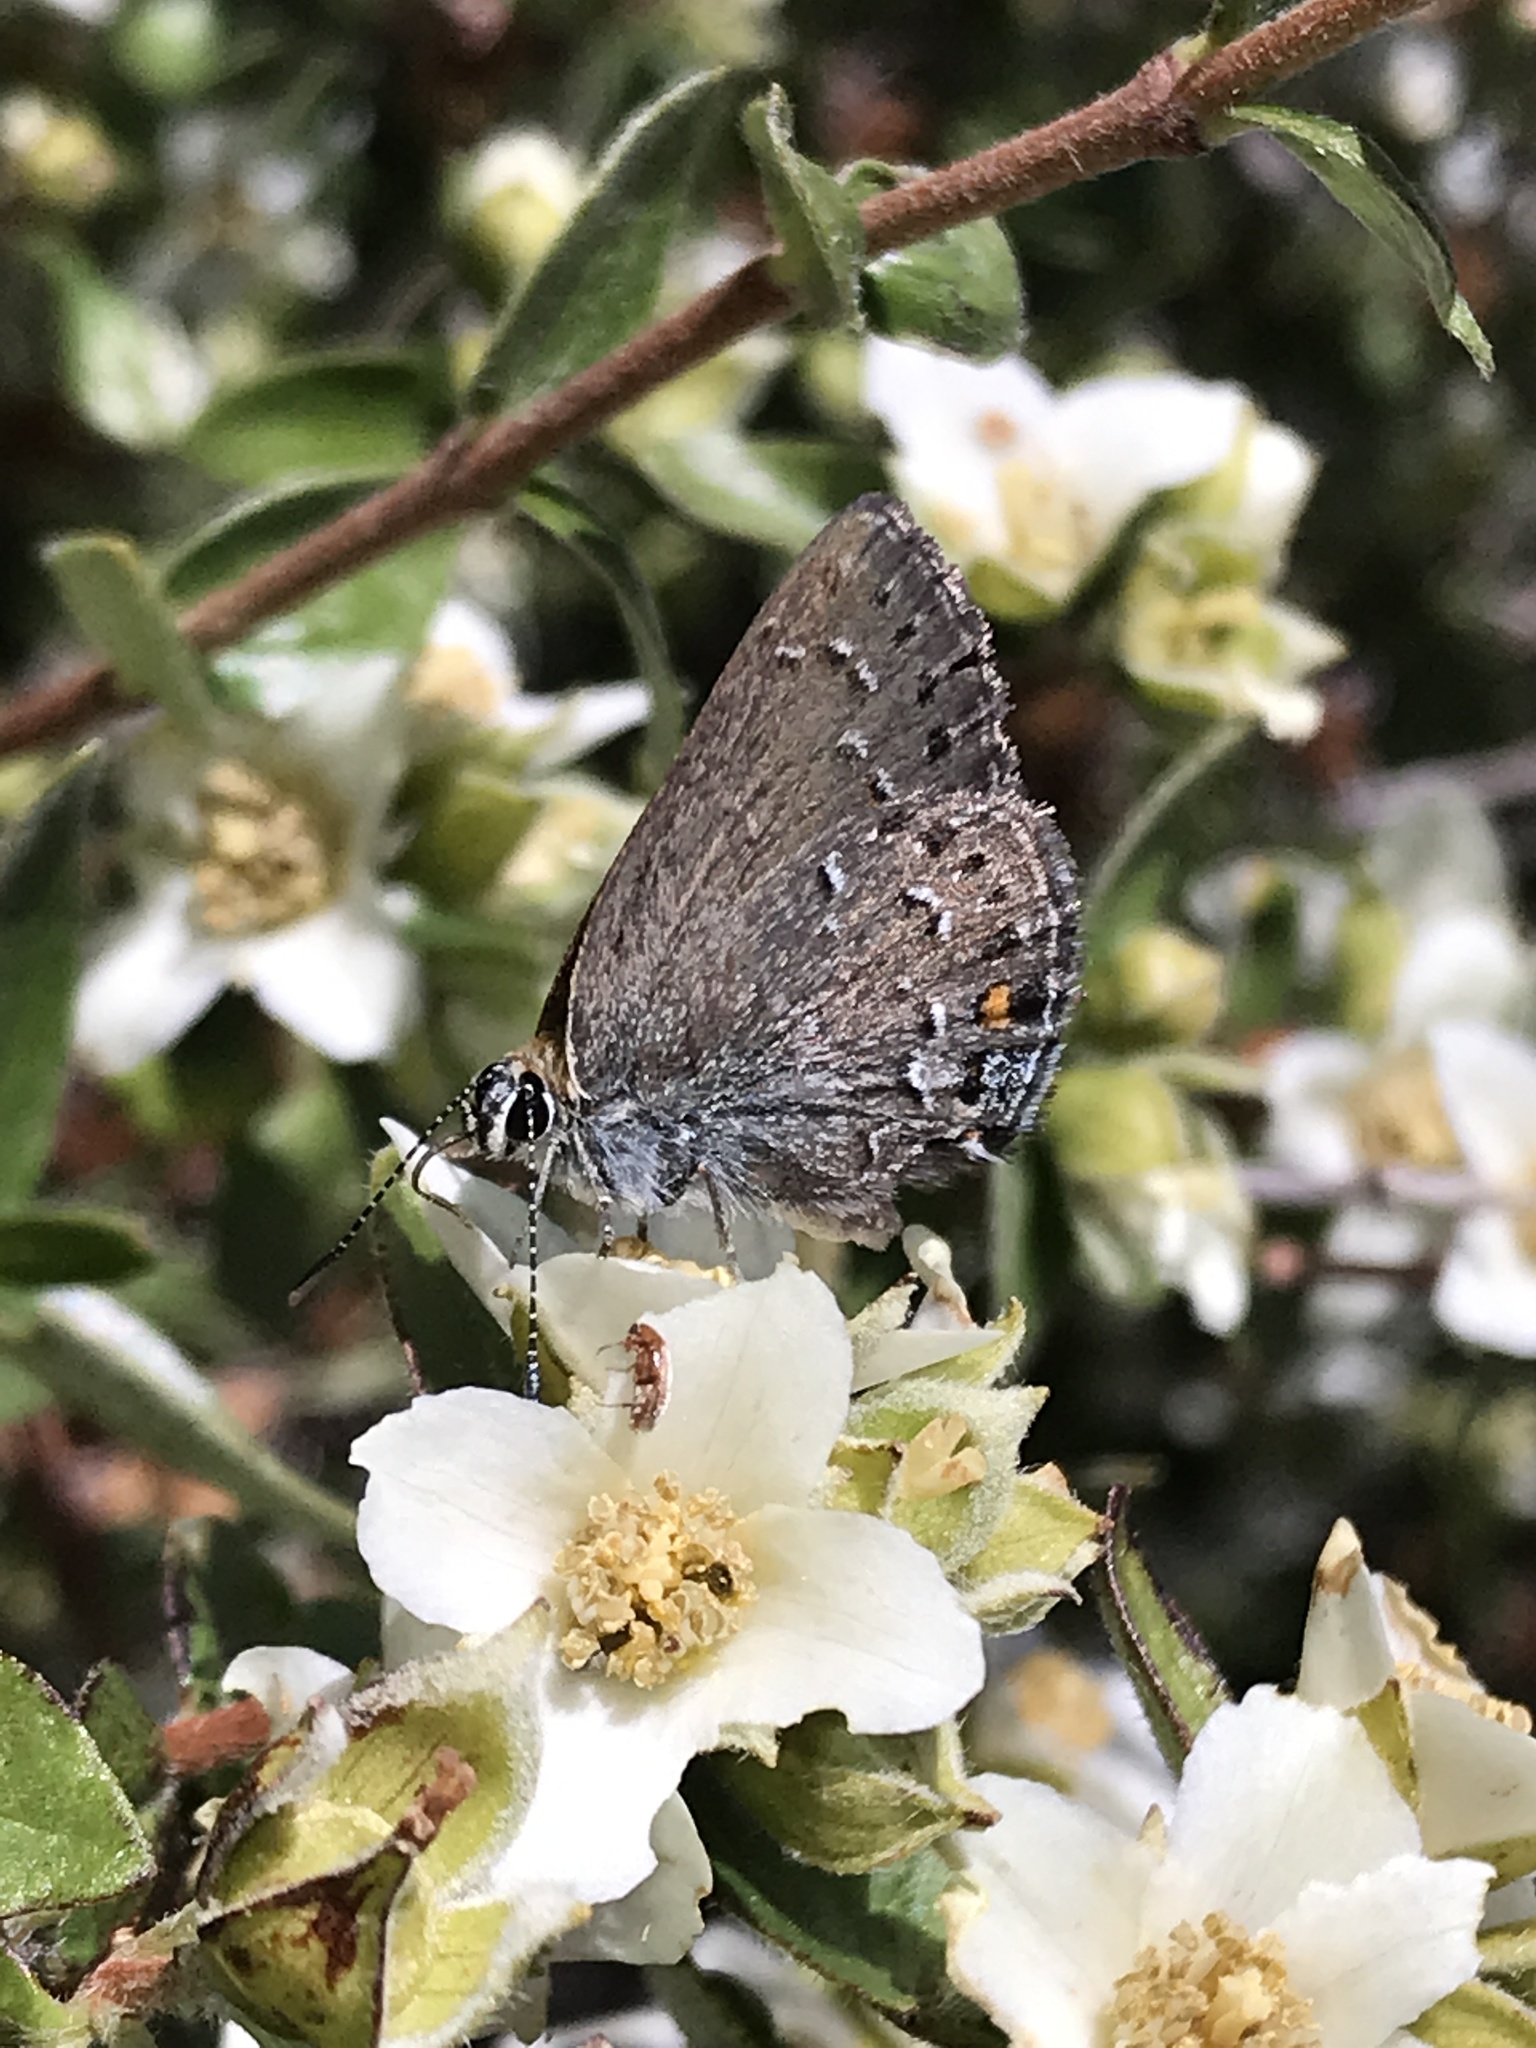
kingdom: Animalia
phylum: Arthropoda
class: Insecta
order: Lepidoptera
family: Lycaenidae
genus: Satyrium
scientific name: Satyrium behrii
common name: Behr's hairstreak
